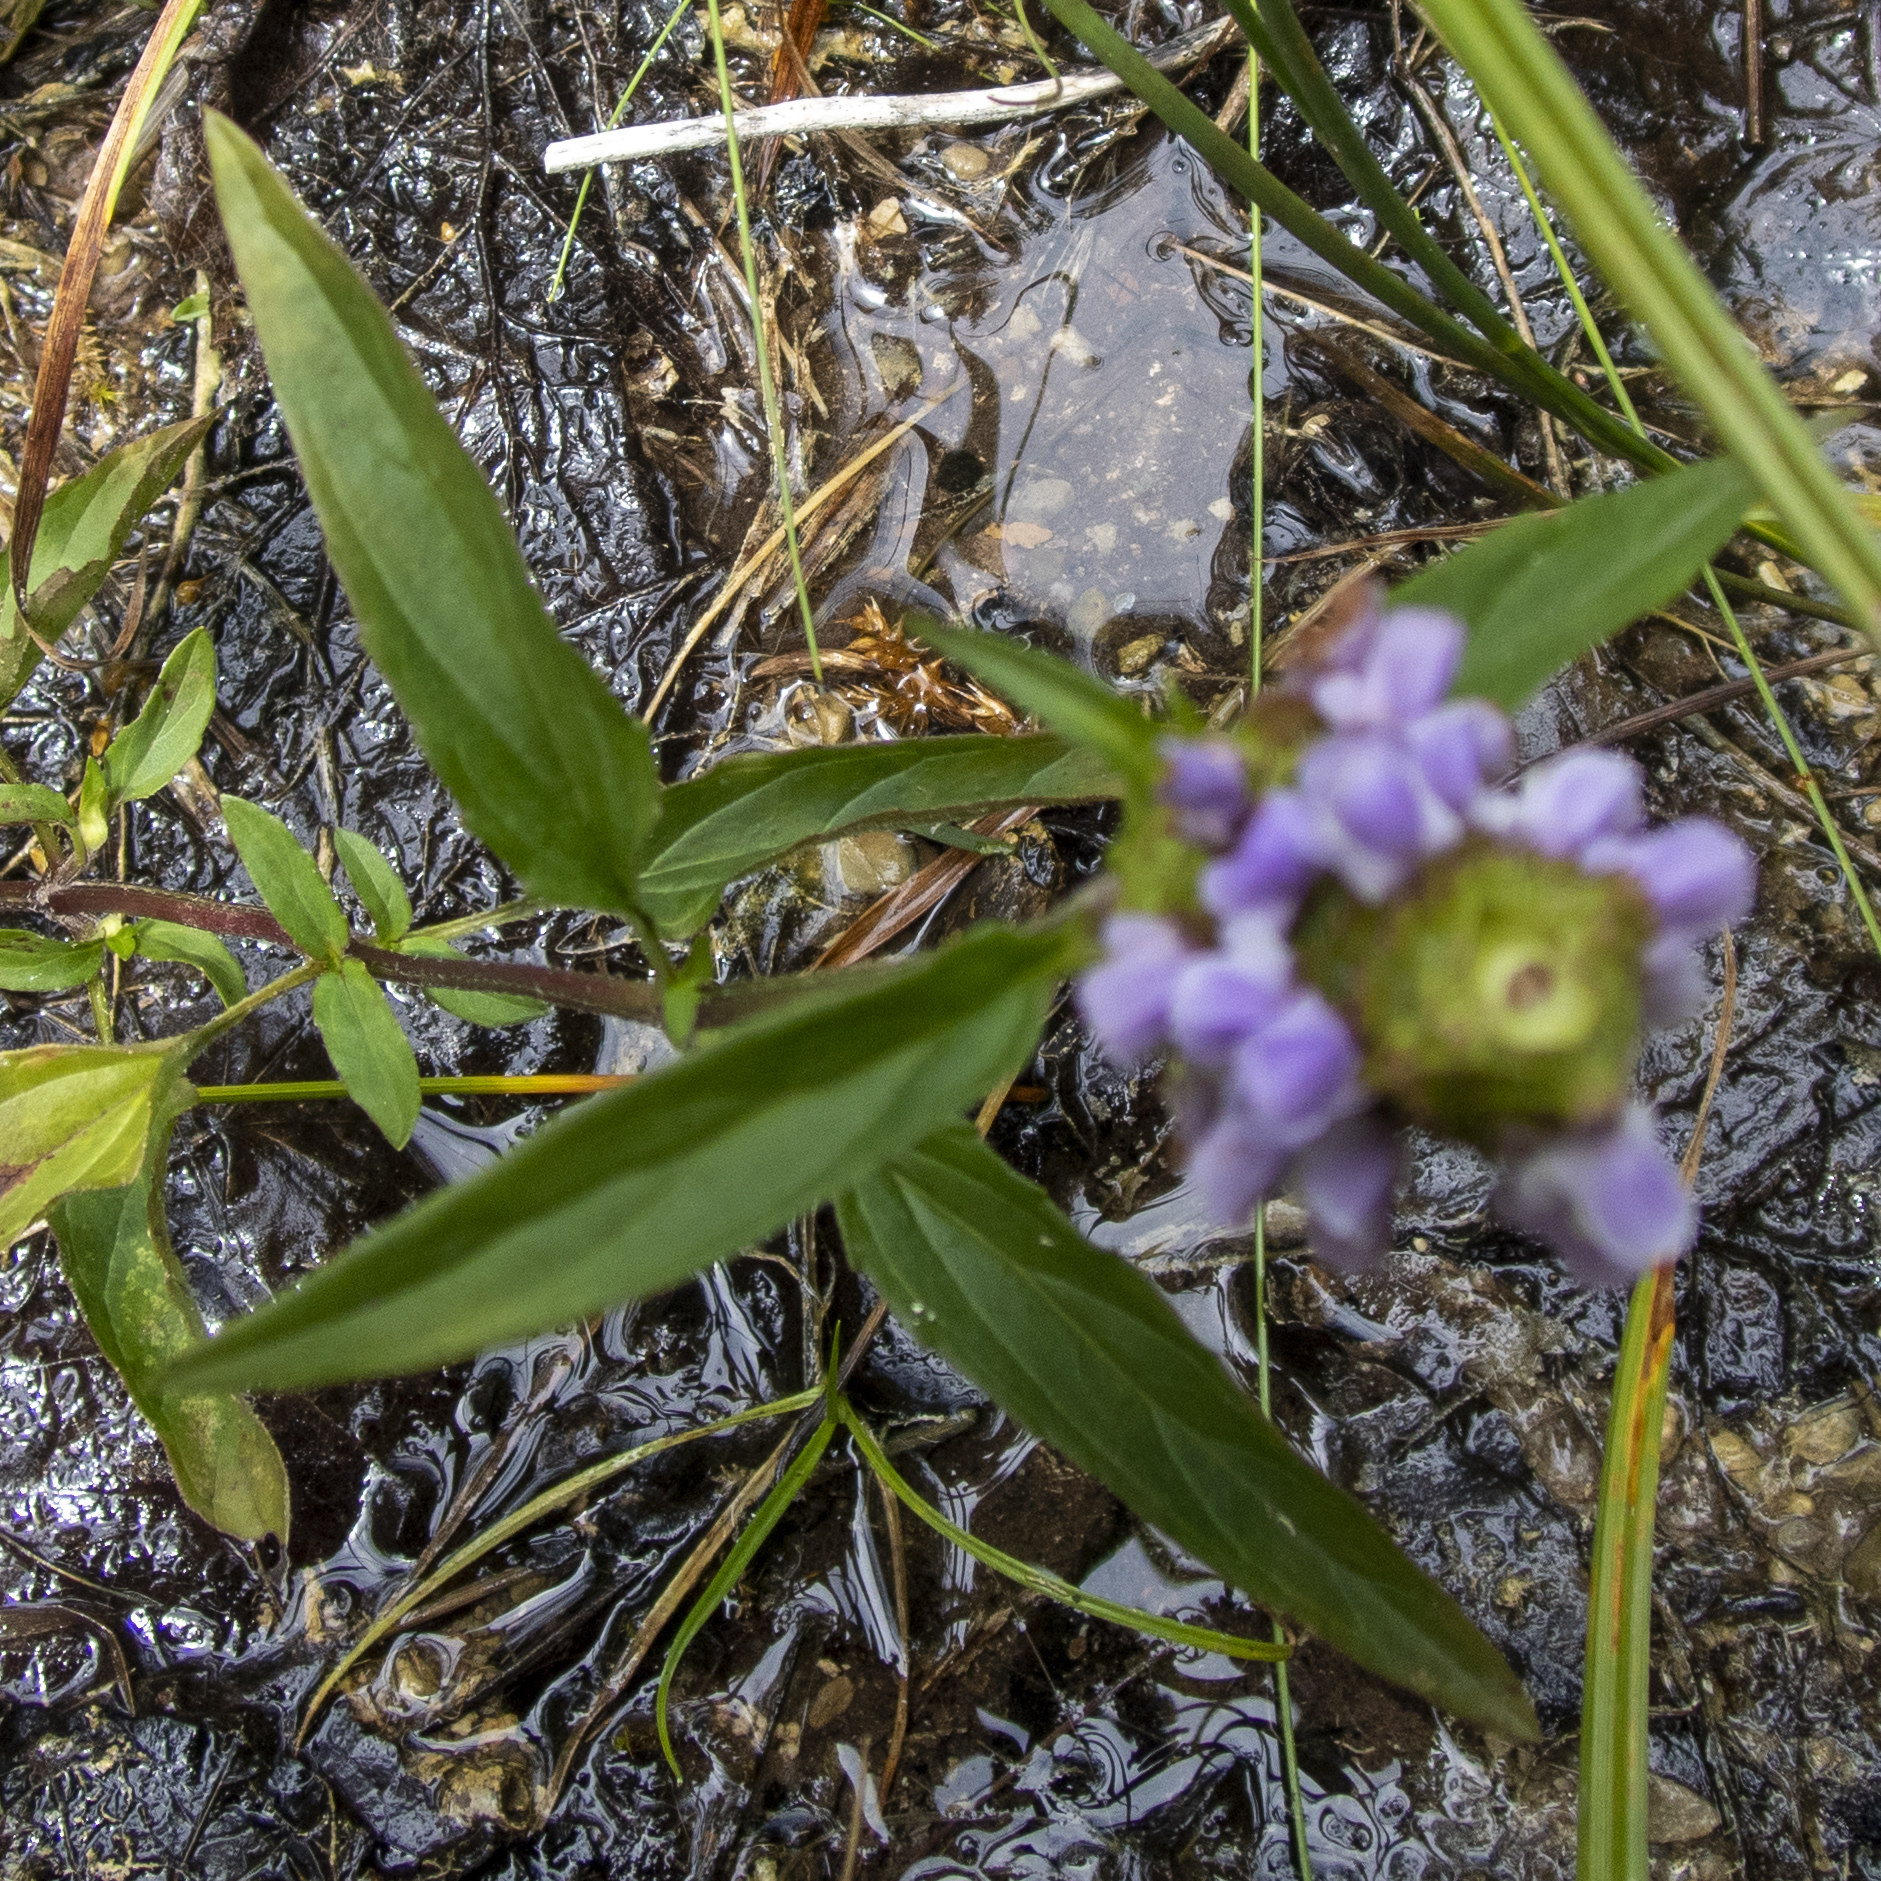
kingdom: Plantae
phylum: Tracheophyta
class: Magnoliopsida
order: Lamiales
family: Lamiaceae
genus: Prunella
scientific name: Prunella vulgaris
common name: Heal-all
